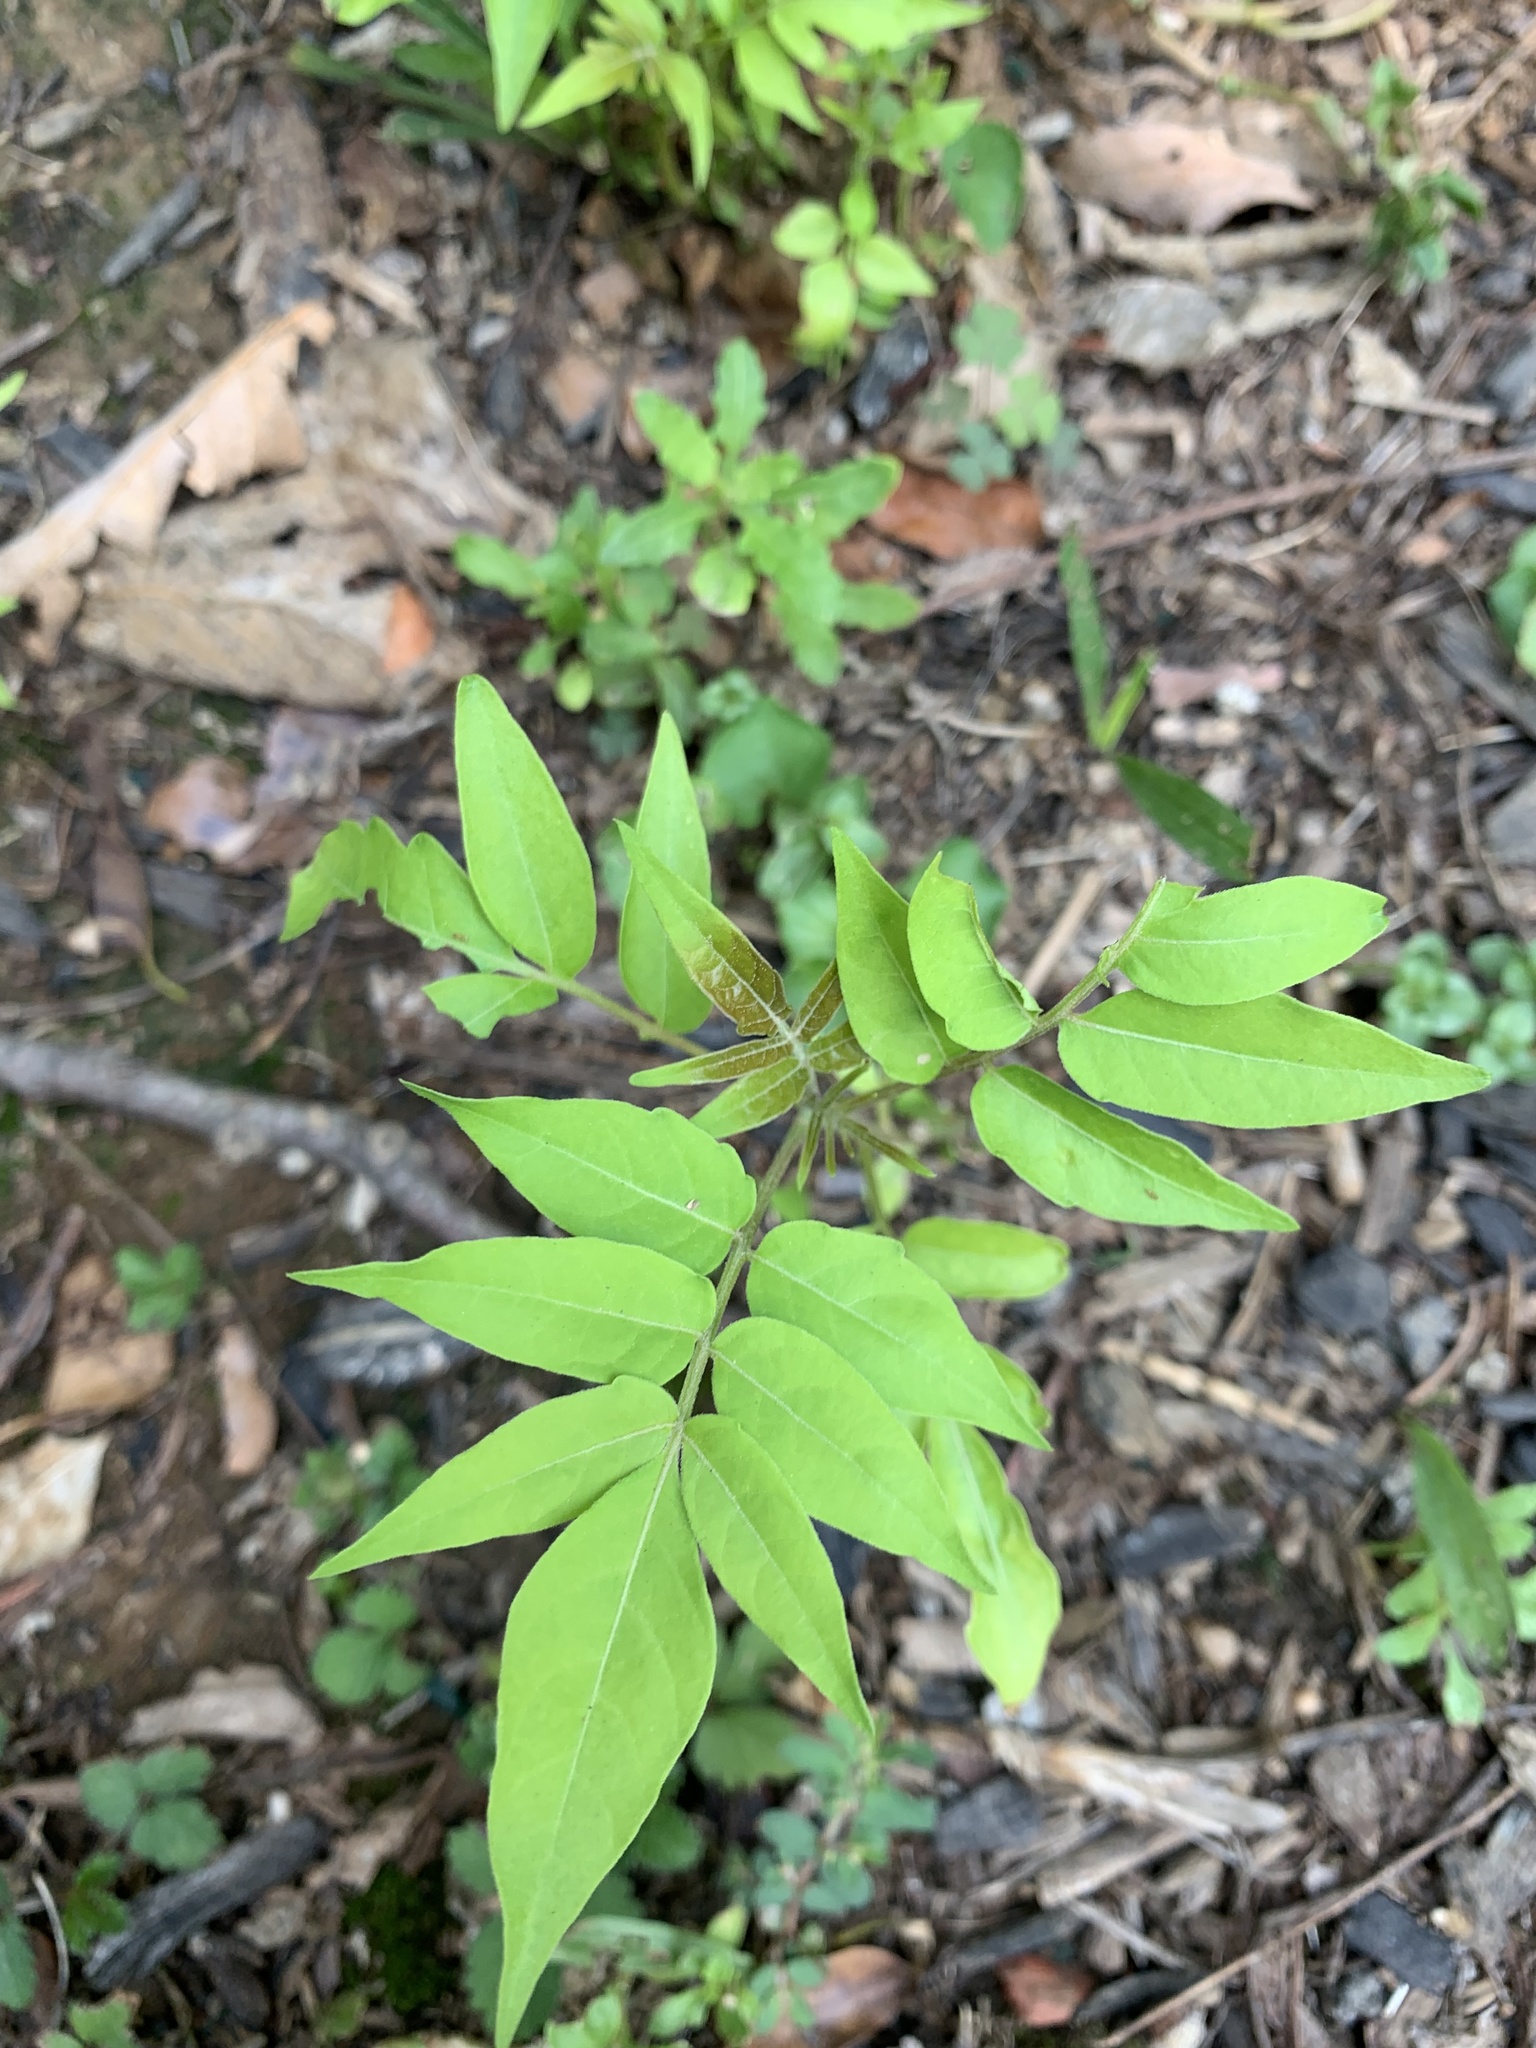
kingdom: Plantae
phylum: Tracheophyta
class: Magnoliopsida
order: Sapindales
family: Simaroubaceae
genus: Ailanthus
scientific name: Ailanthus altissima
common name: Tree-of-heaven
